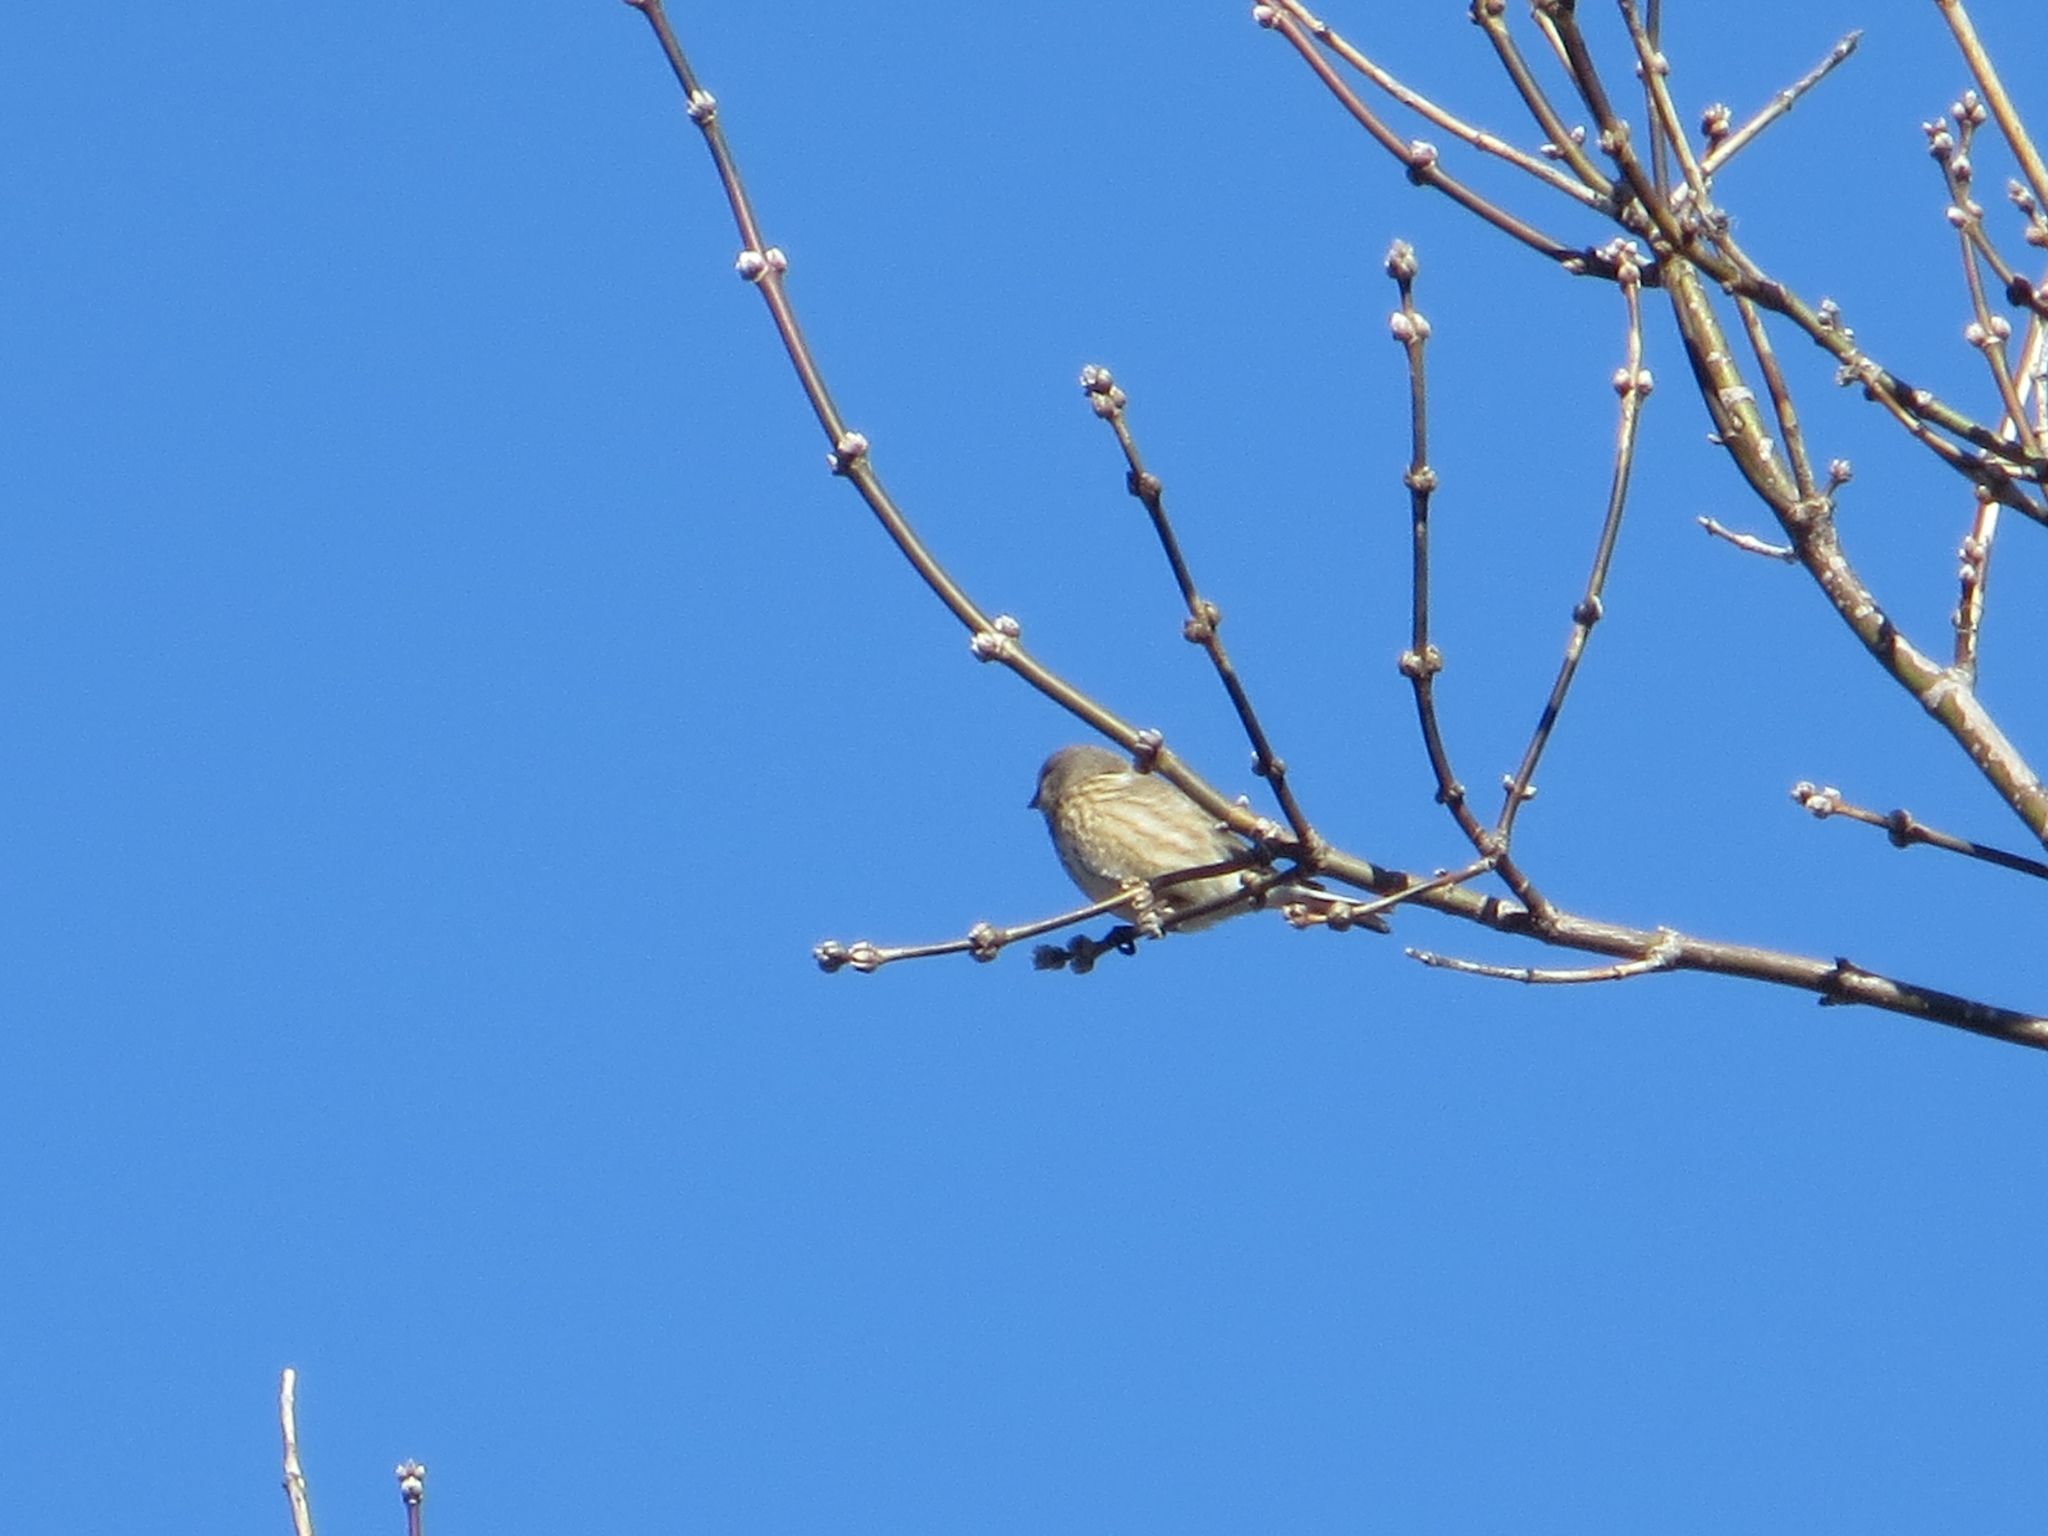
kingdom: Animalia
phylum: Chordata
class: Aves
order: Passeriformes
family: Fringillidae
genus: Linaria
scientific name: Linaria cannabina
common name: Common linnet
